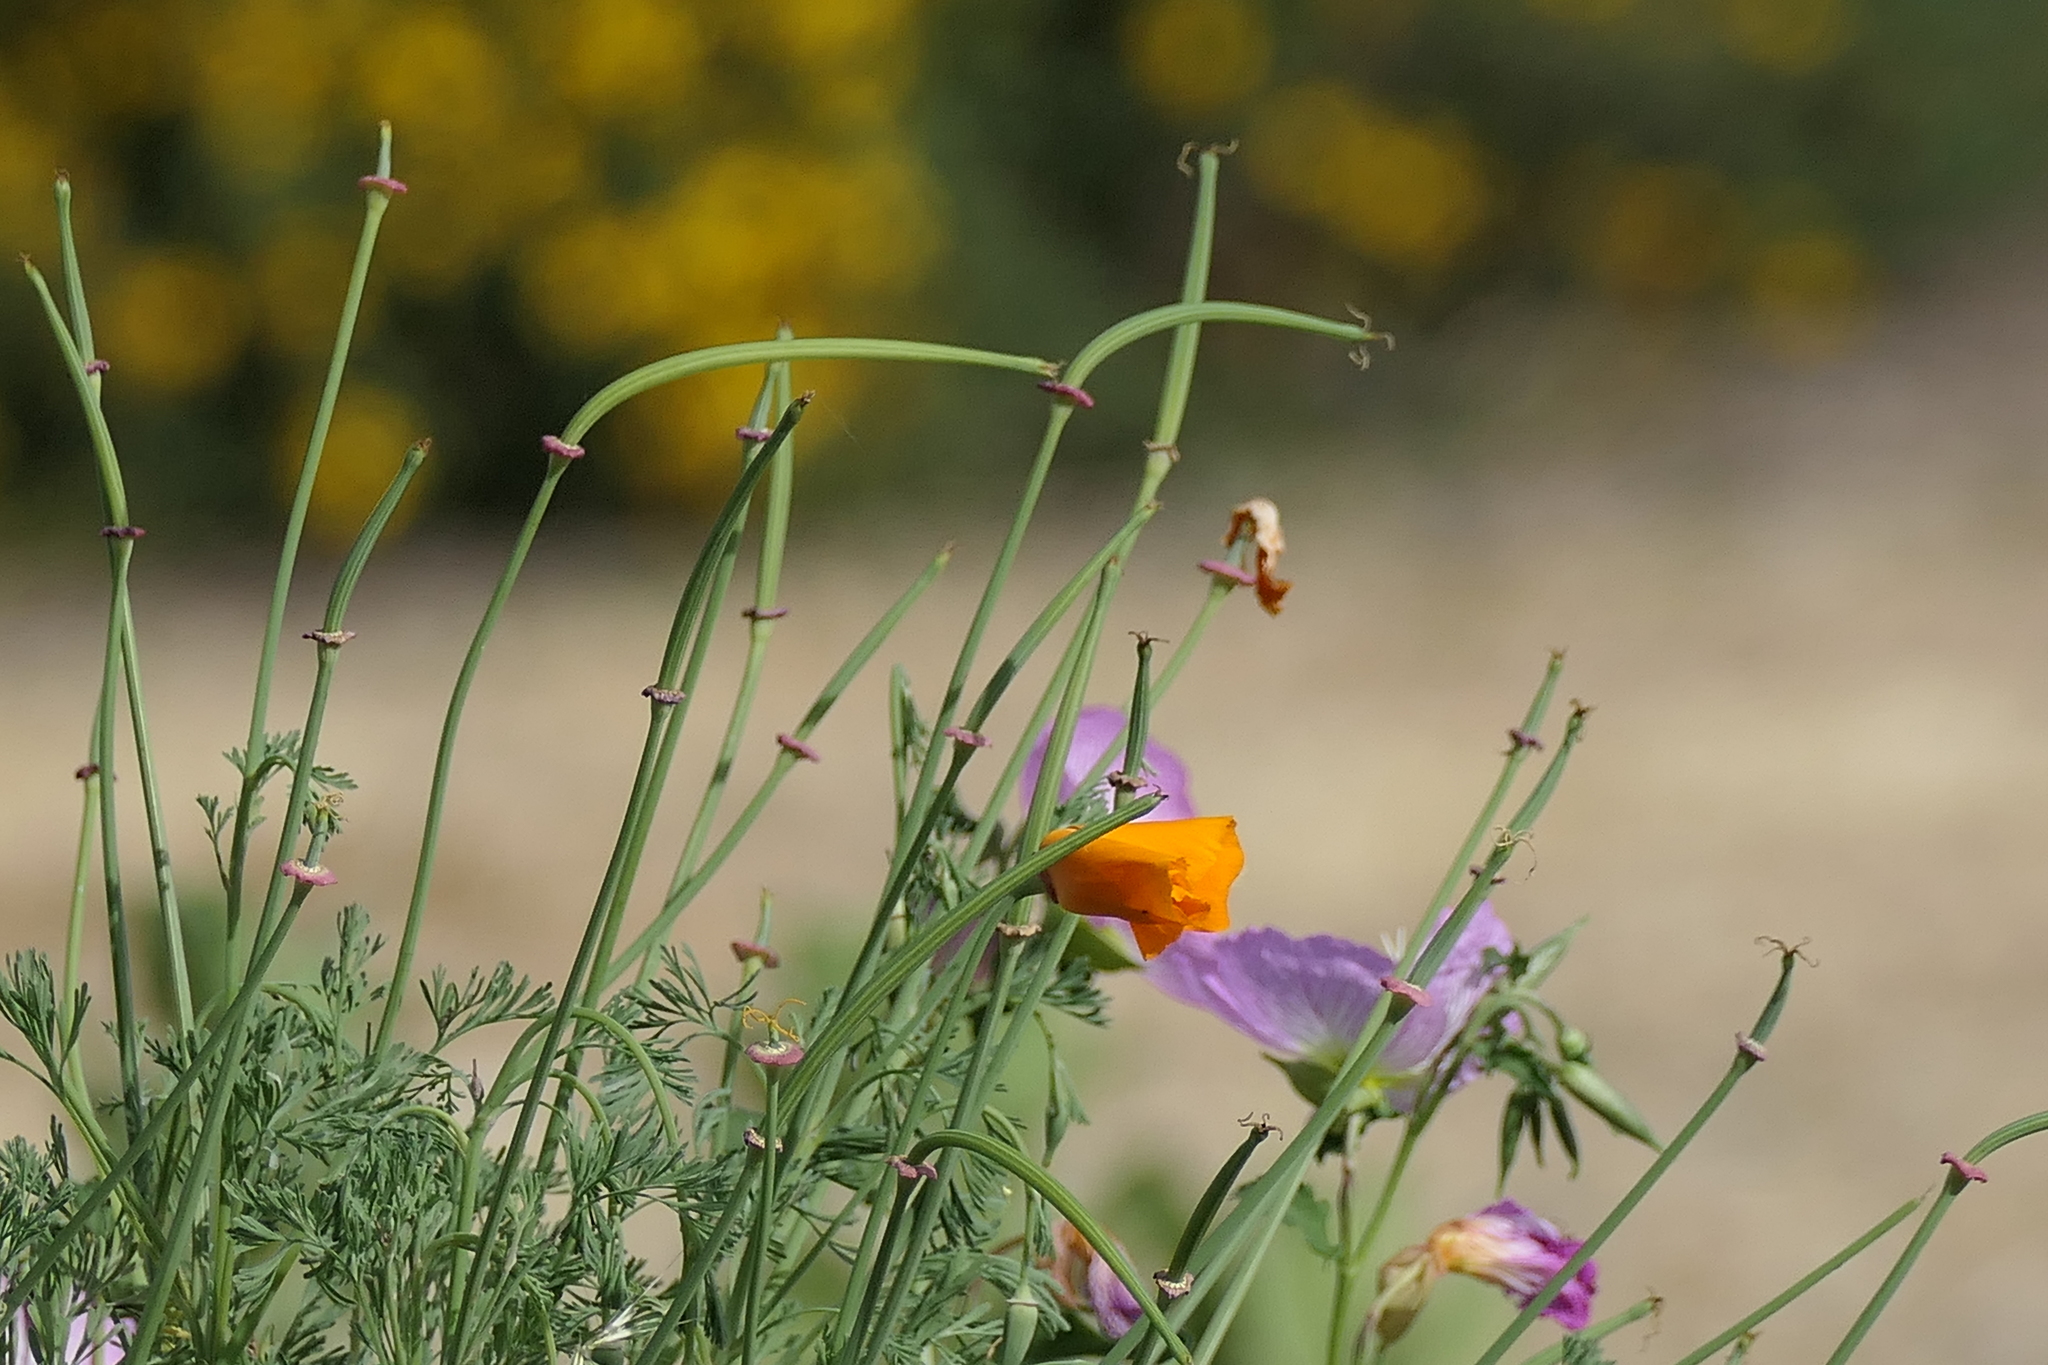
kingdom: Plantae
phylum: Tracheophyta
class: Magnoliopsida
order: Ranunculales
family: Papaveraceae
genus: Eschscholzia
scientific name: Eschscholzia californica
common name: California poppy
